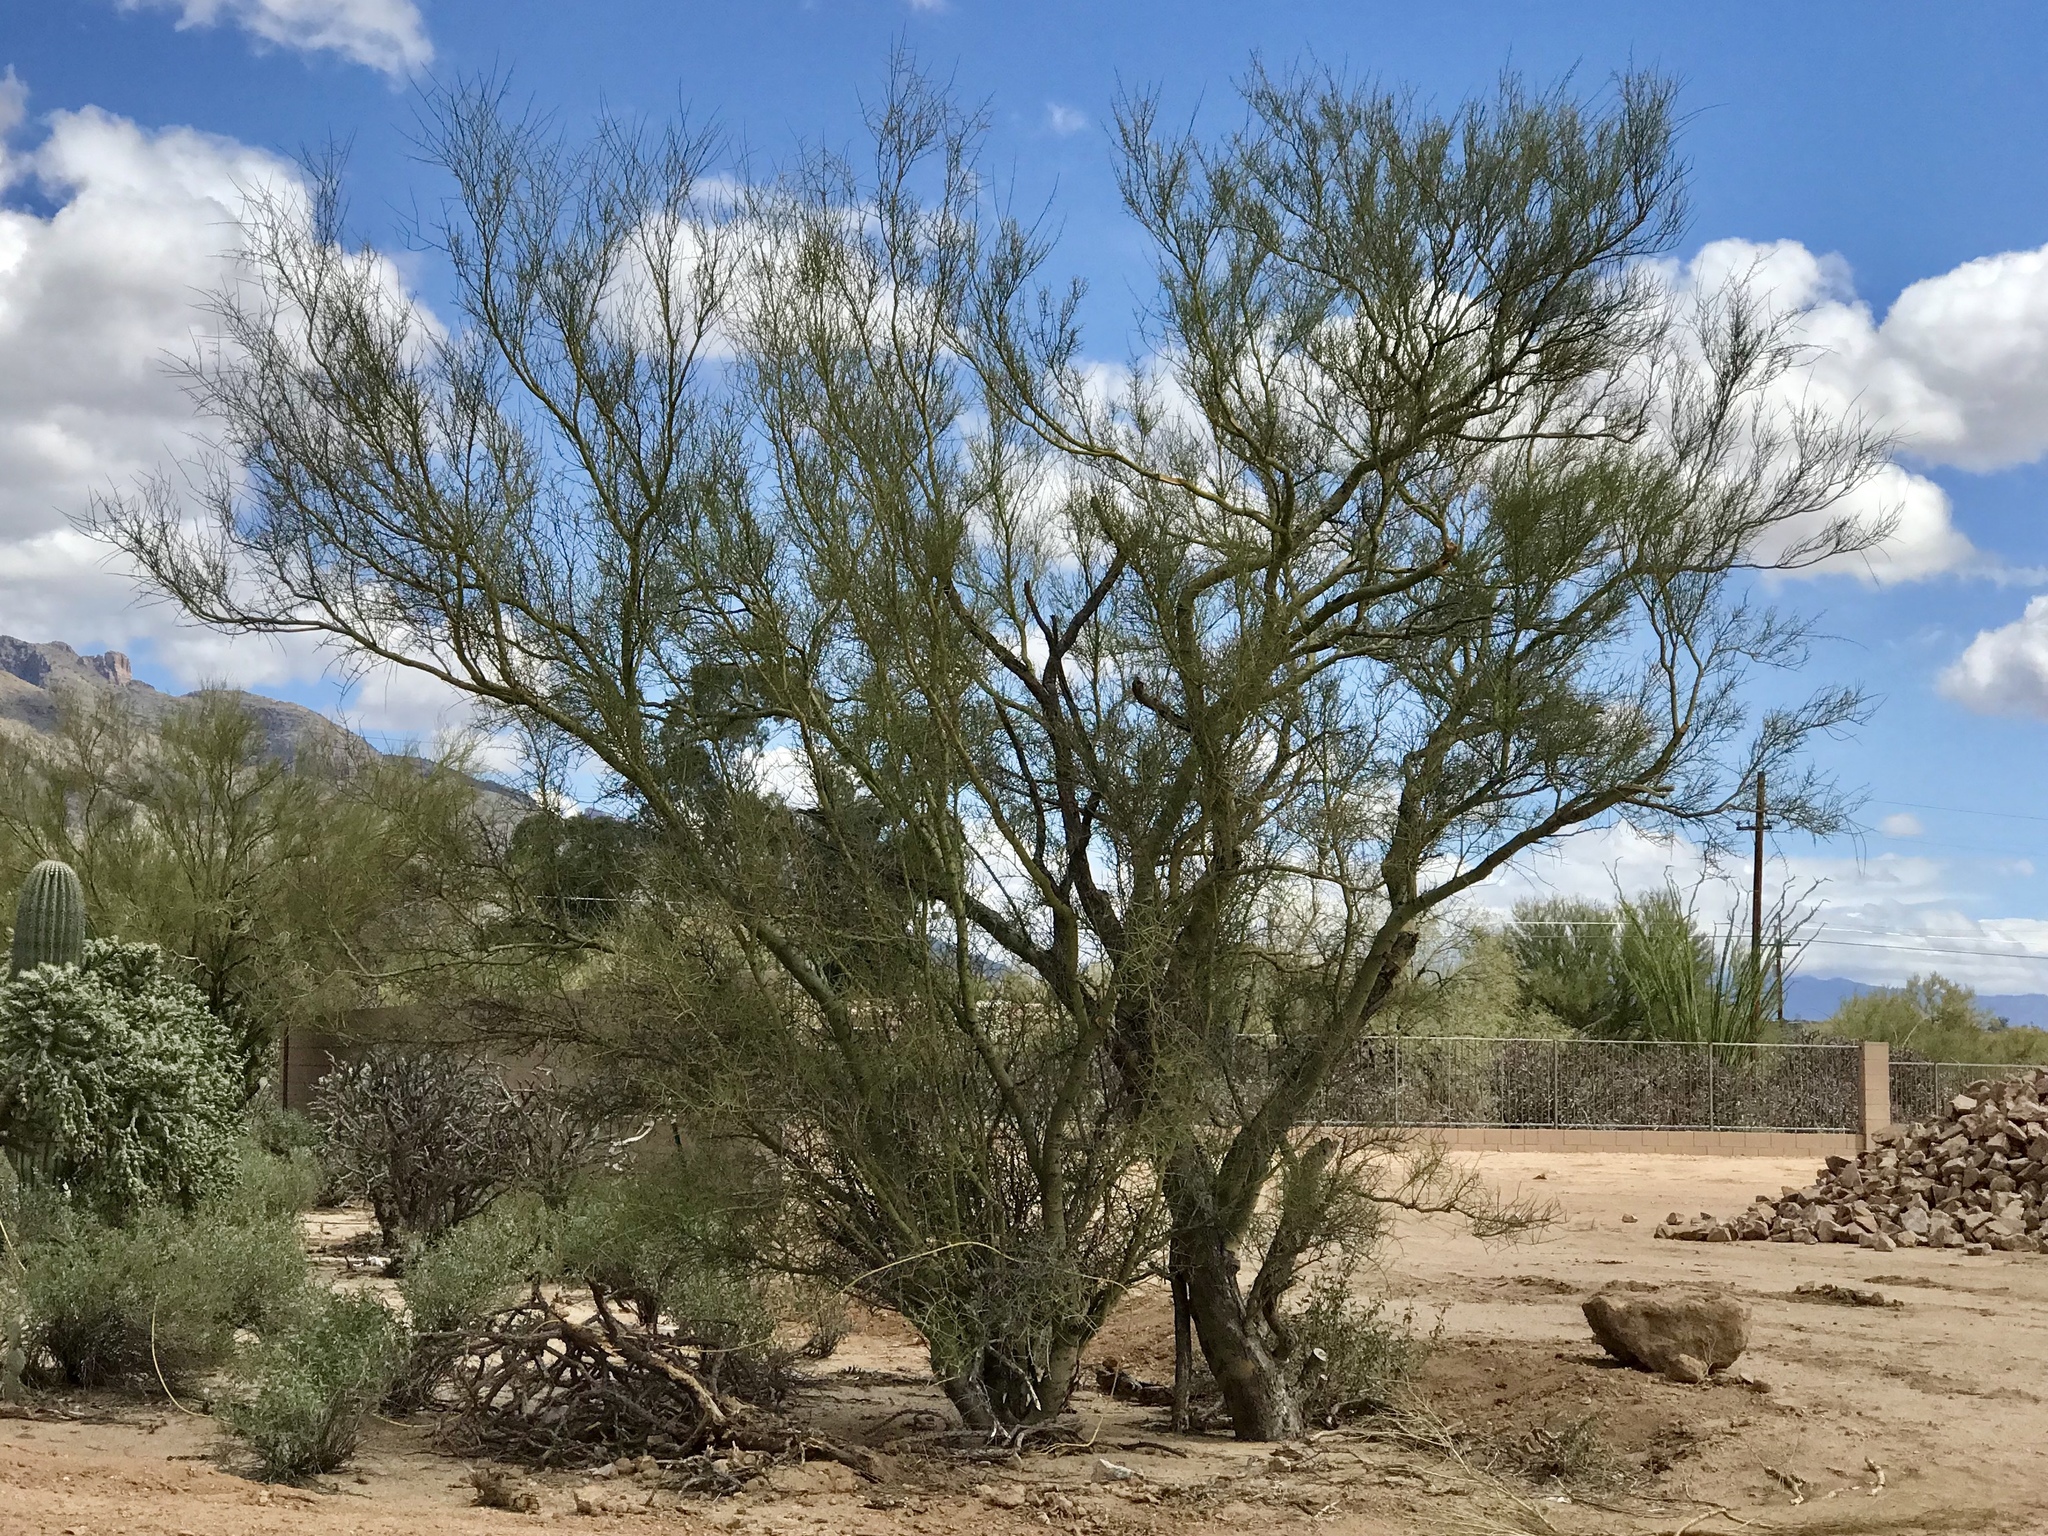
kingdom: Plantae
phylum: Tracheophyta
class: Magnoliopsida
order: Fabales
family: Fabaceae
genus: Parkinsonia
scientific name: Parkinsonia microphylla
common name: Yellow paloverde
